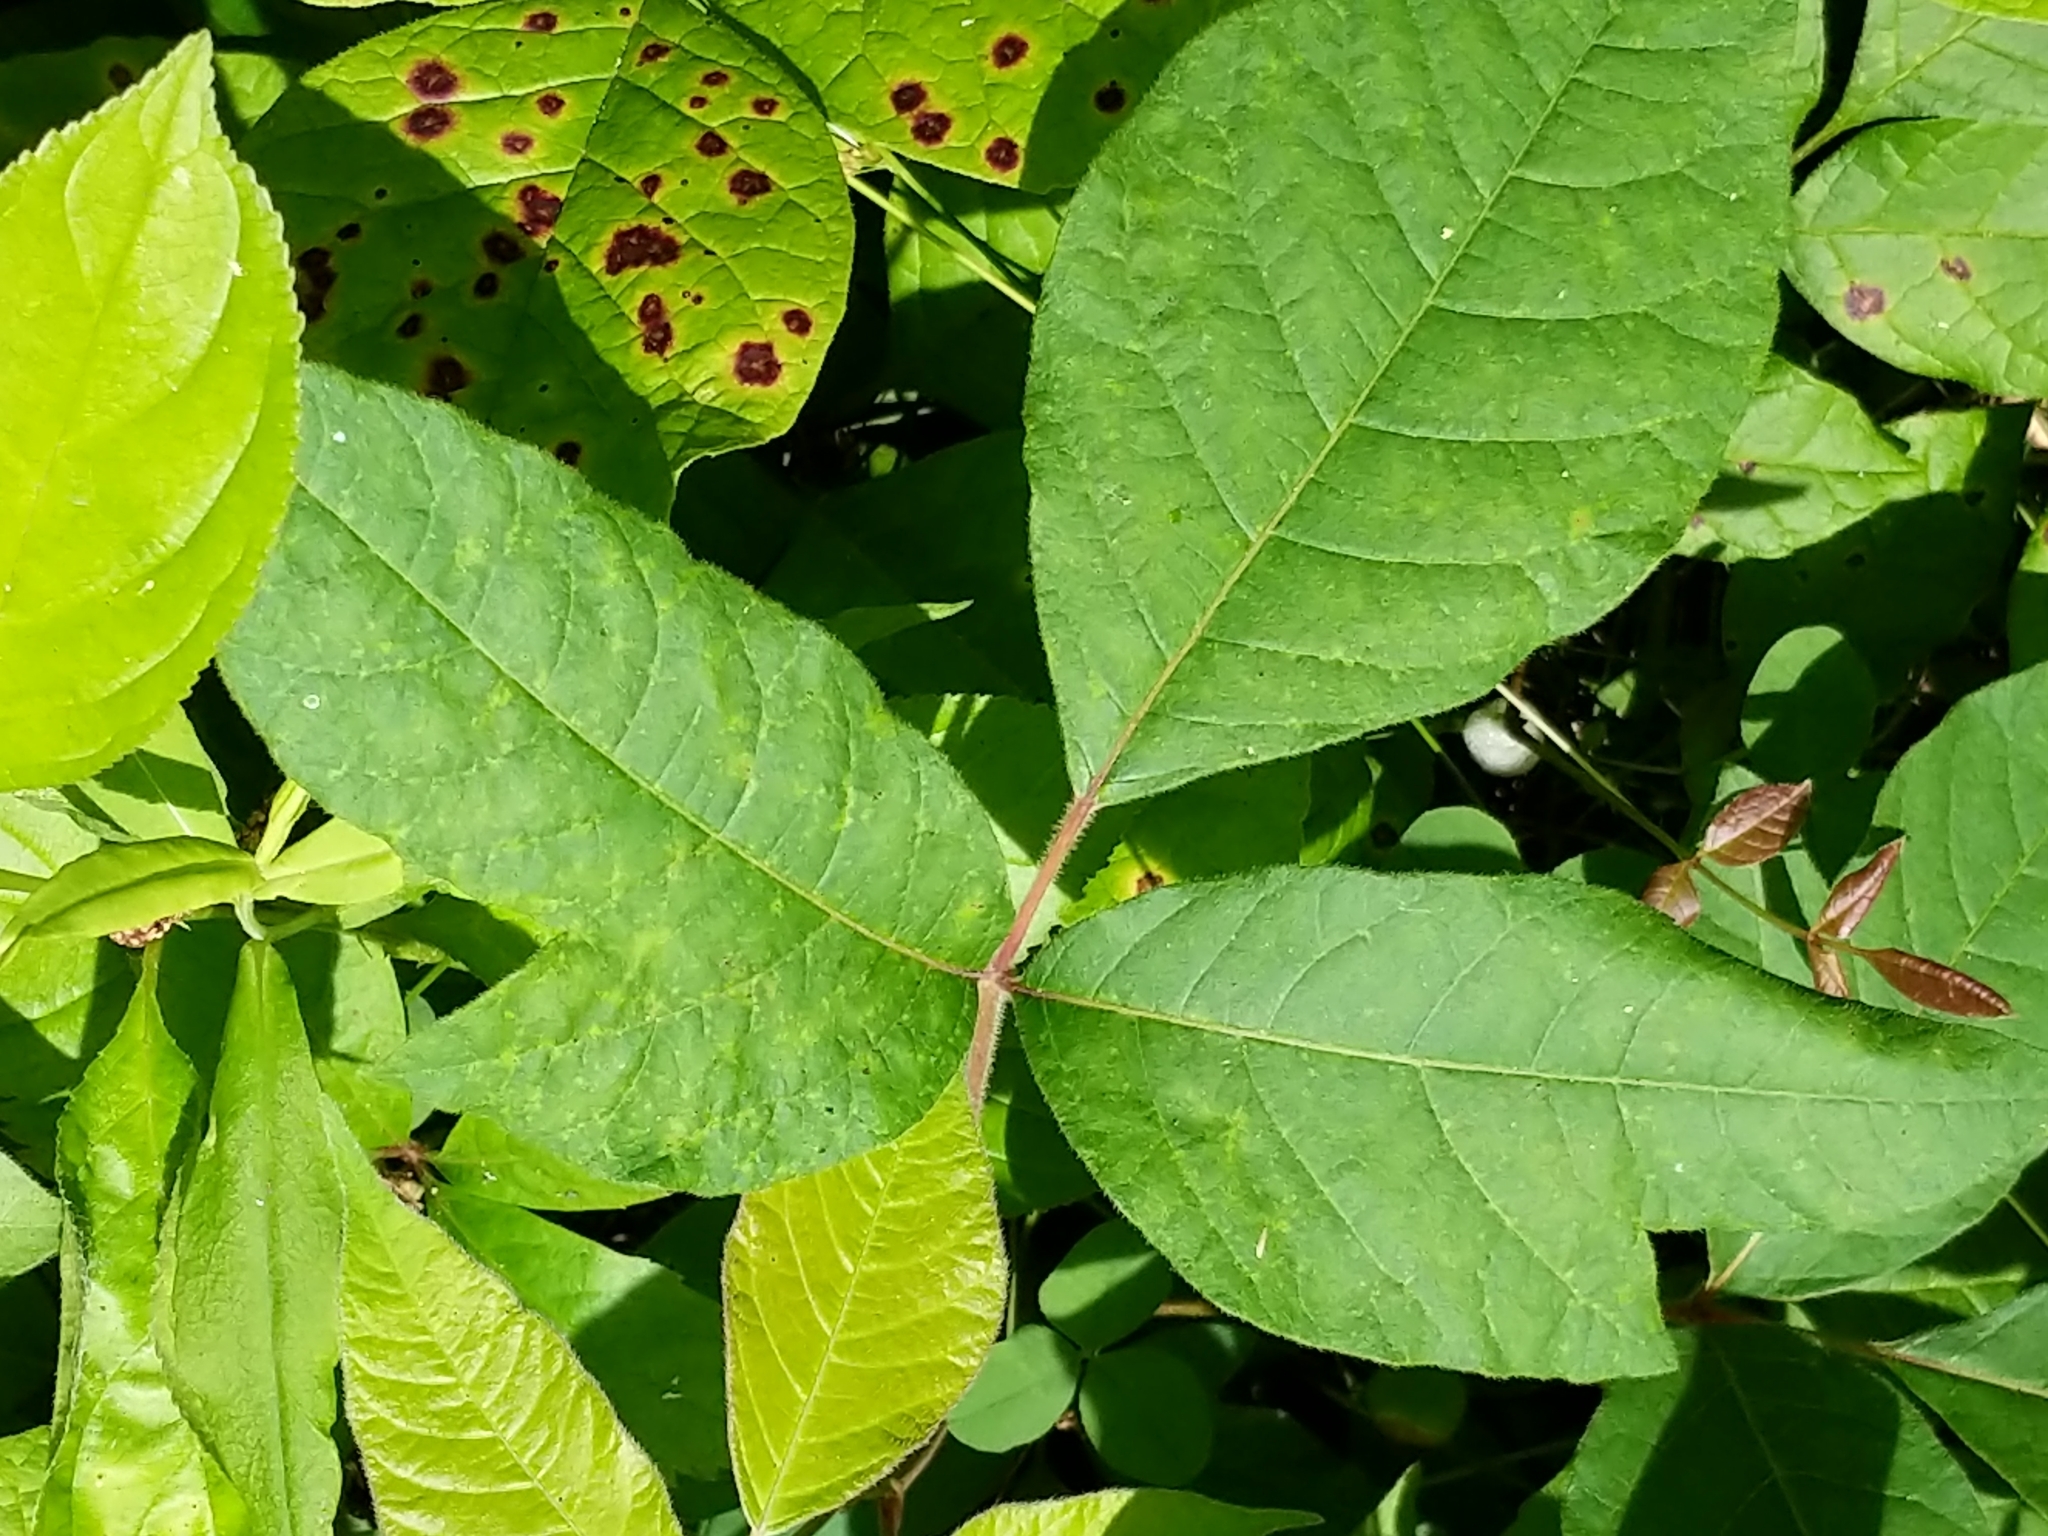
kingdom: Plantae
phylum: Tracheophyta
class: Magnoliopsida
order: Sapindales
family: Anacardiaceae
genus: Toxicodendron
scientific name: Toxicodendron radicans
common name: Poison ivy
